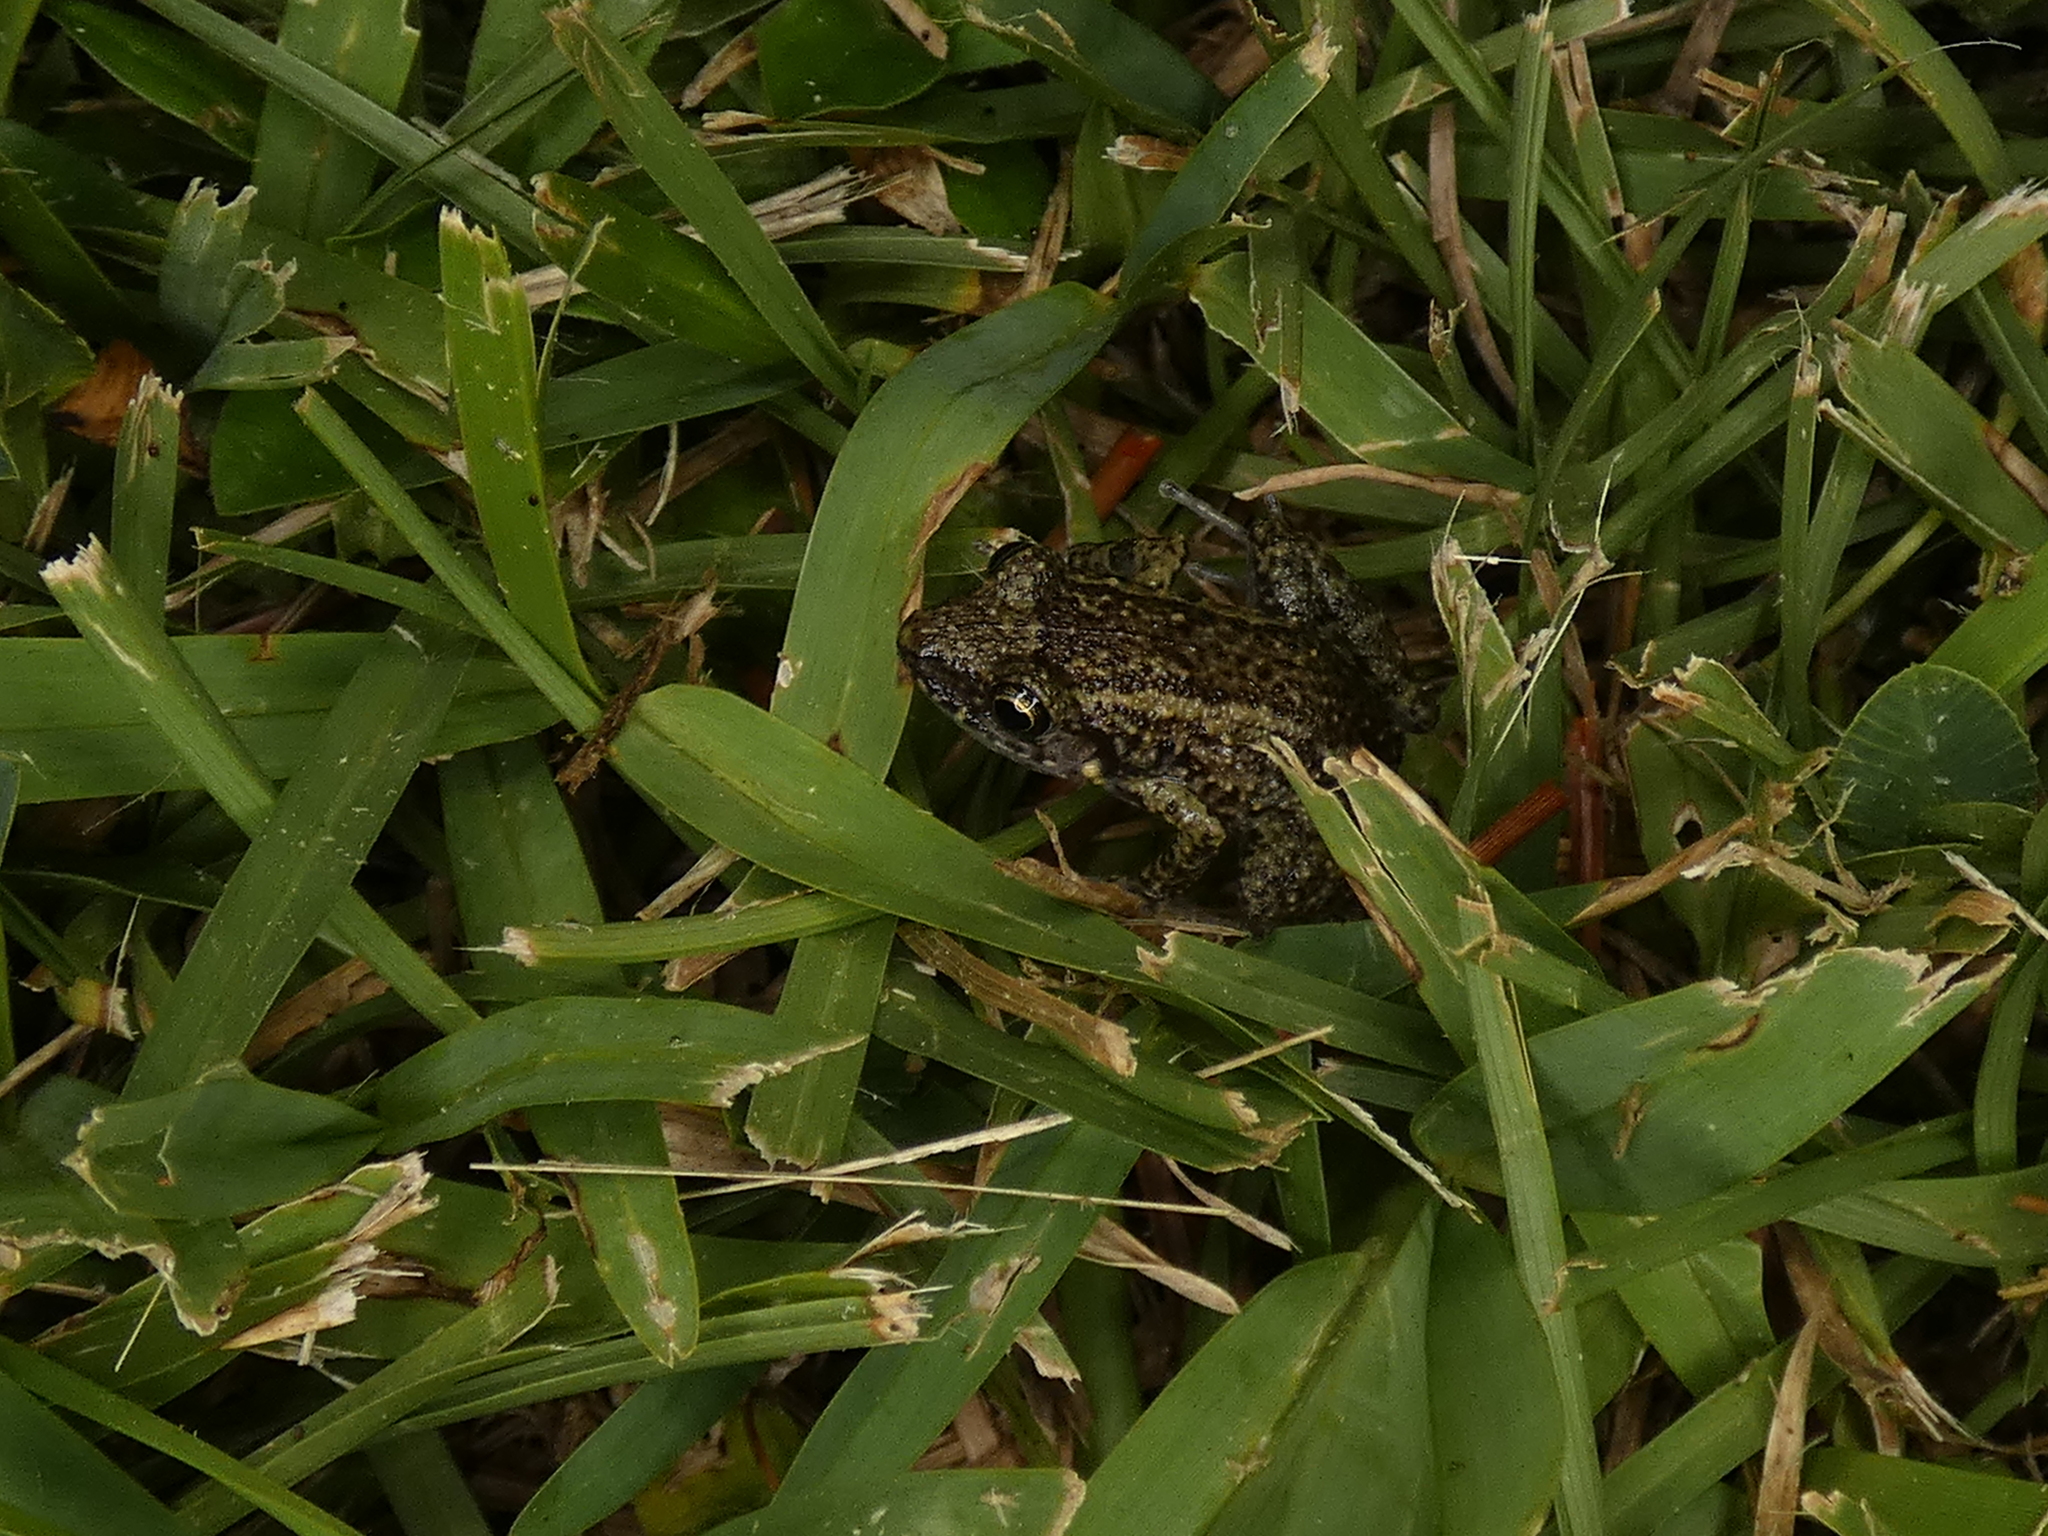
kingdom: Animalia
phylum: Chordata
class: Amphibia
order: Anura
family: Eleutherodactylidae
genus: Eleutherodactylus
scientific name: Eleutherodactylus planirostris
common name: Greenhouse frog
